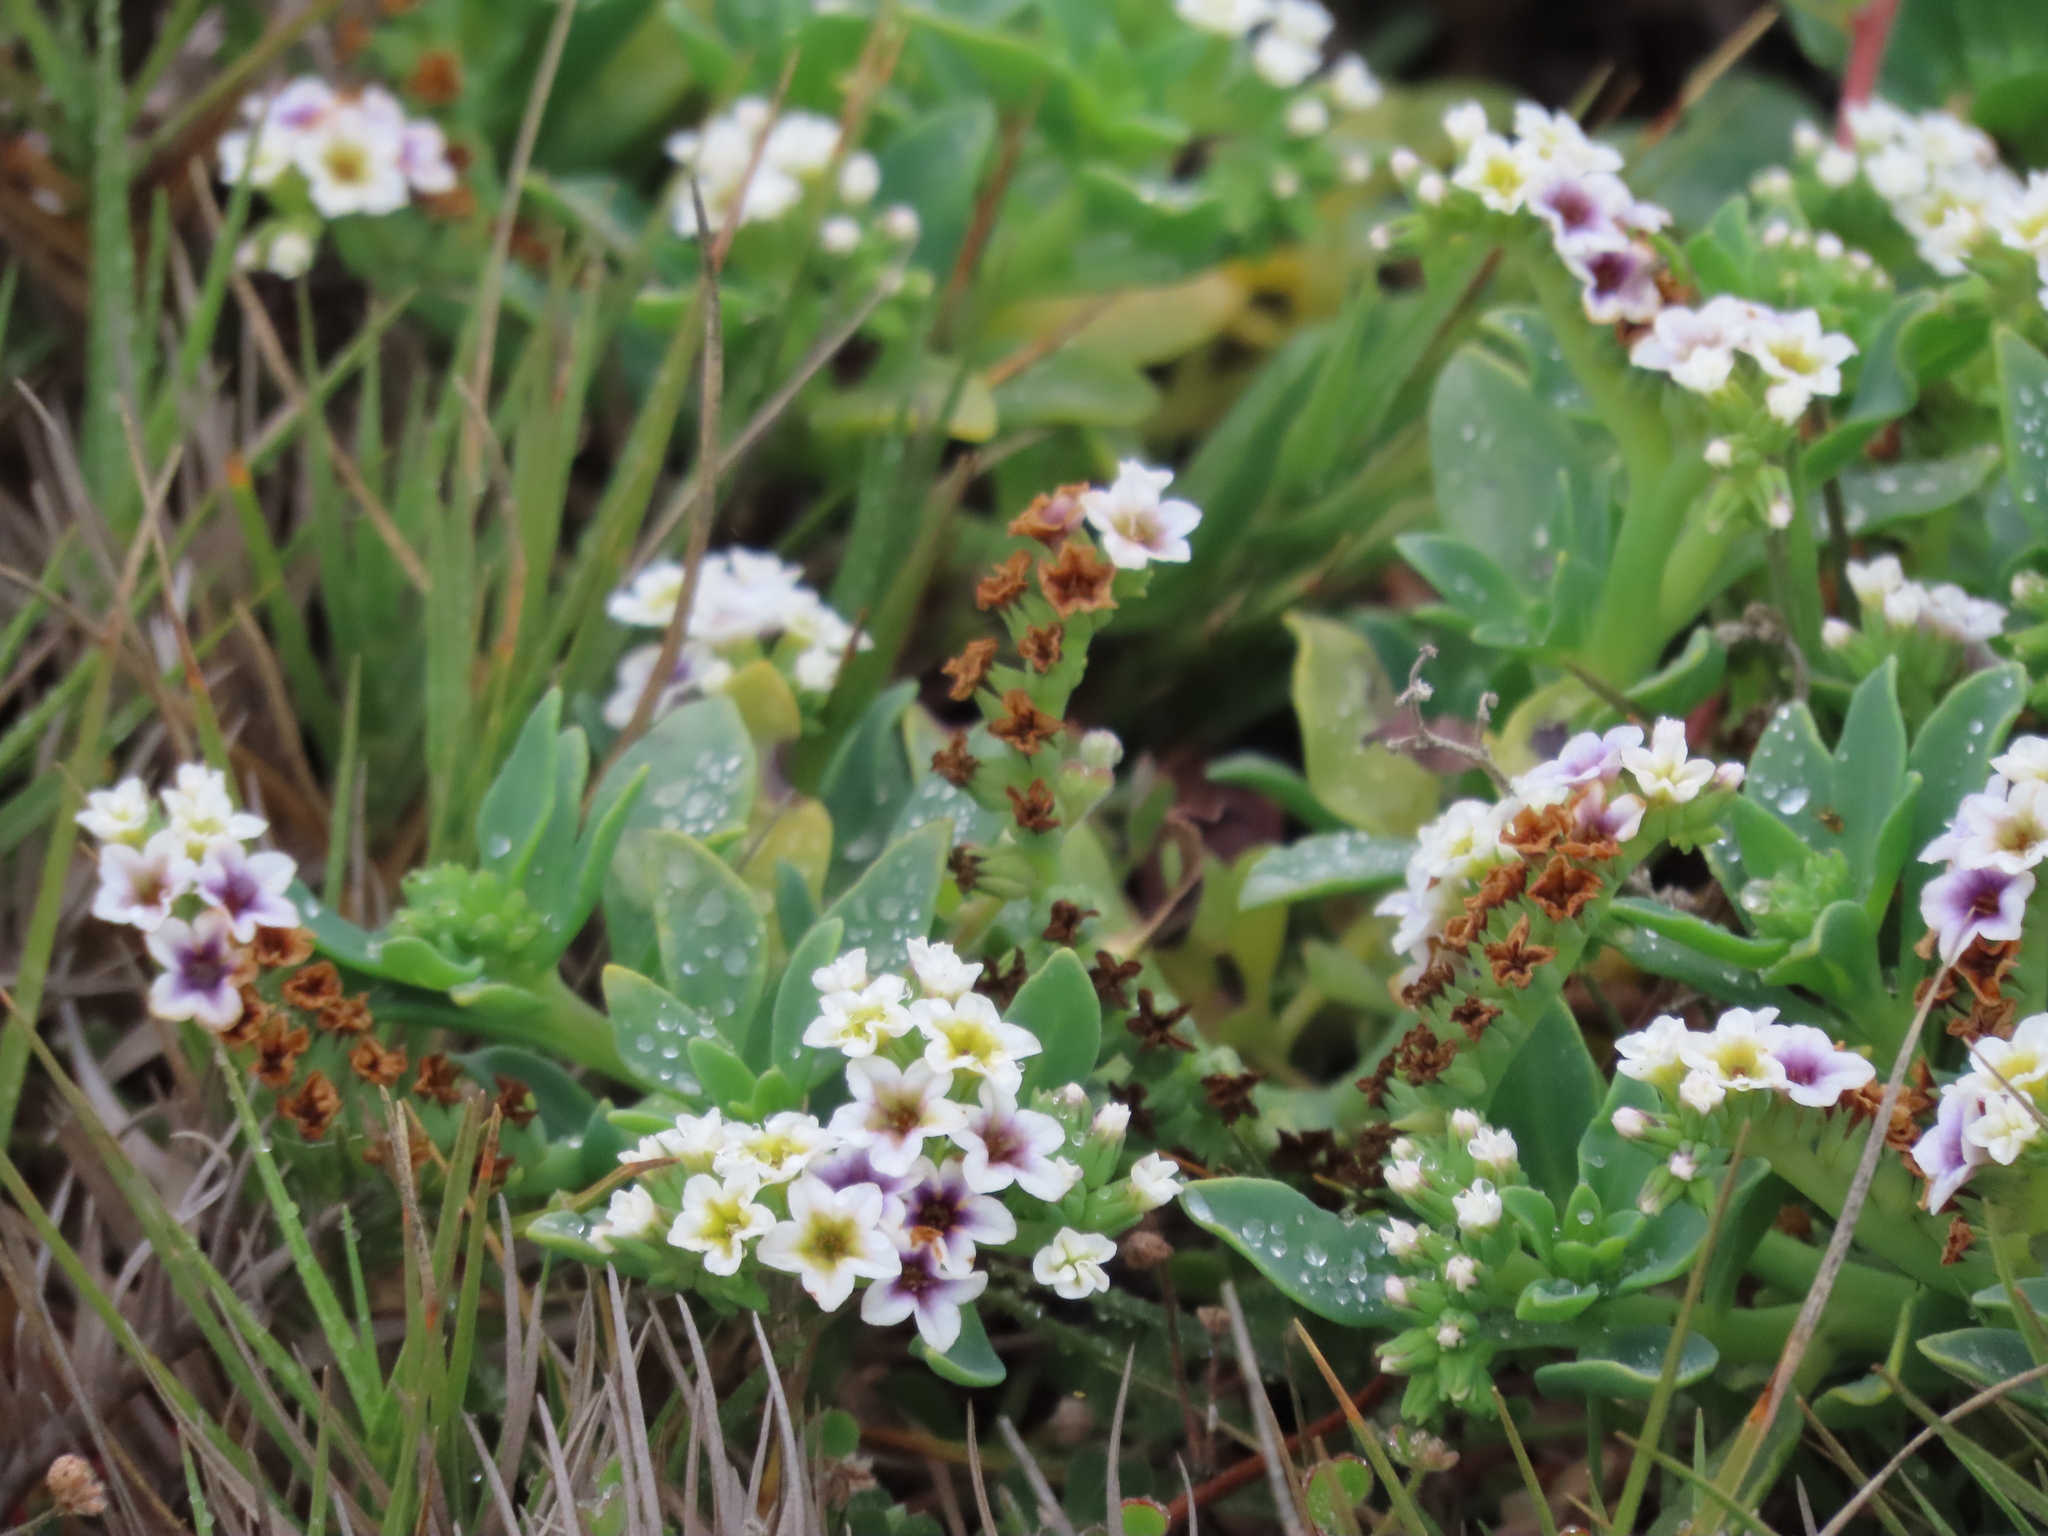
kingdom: Plantae
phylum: Tracheophyta
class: Magnoliopsida
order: Boraginales
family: Heliotropiaceae
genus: Heliotropium
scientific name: Heliotropium curassavicum
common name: Seaside heliotrope
